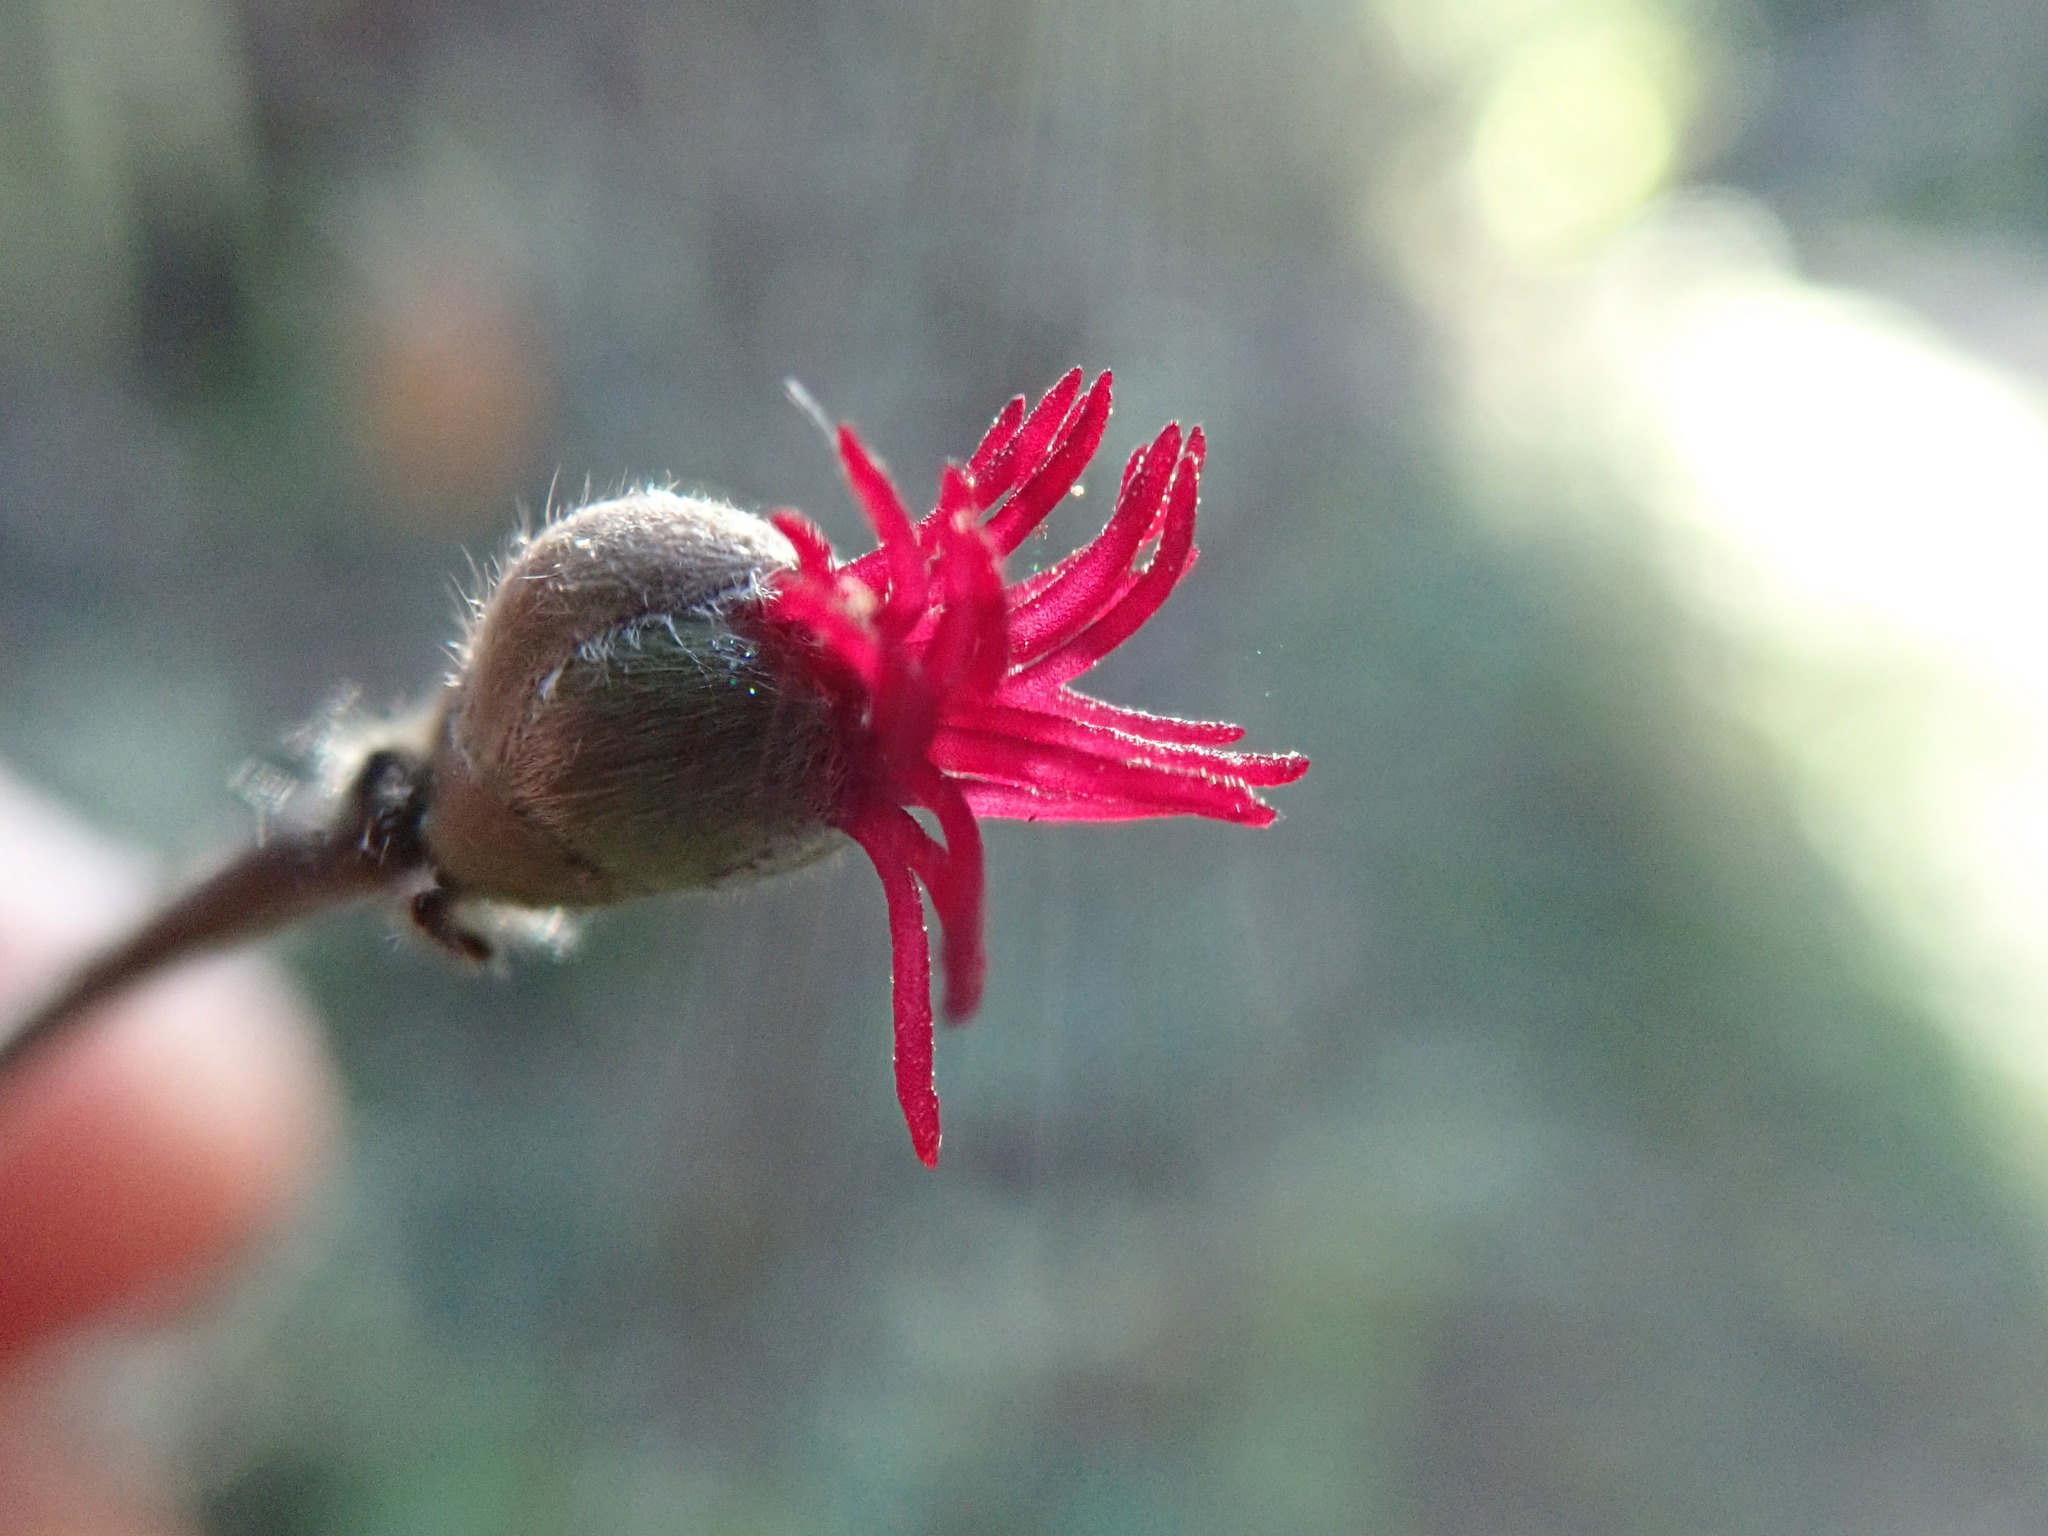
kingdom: Plantae
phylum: Tracheophyta
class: Magnoliopsida
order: Fagales
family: Betulaceae
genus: Corylus
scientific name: Corylus cornuta
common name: Beaked hazel
